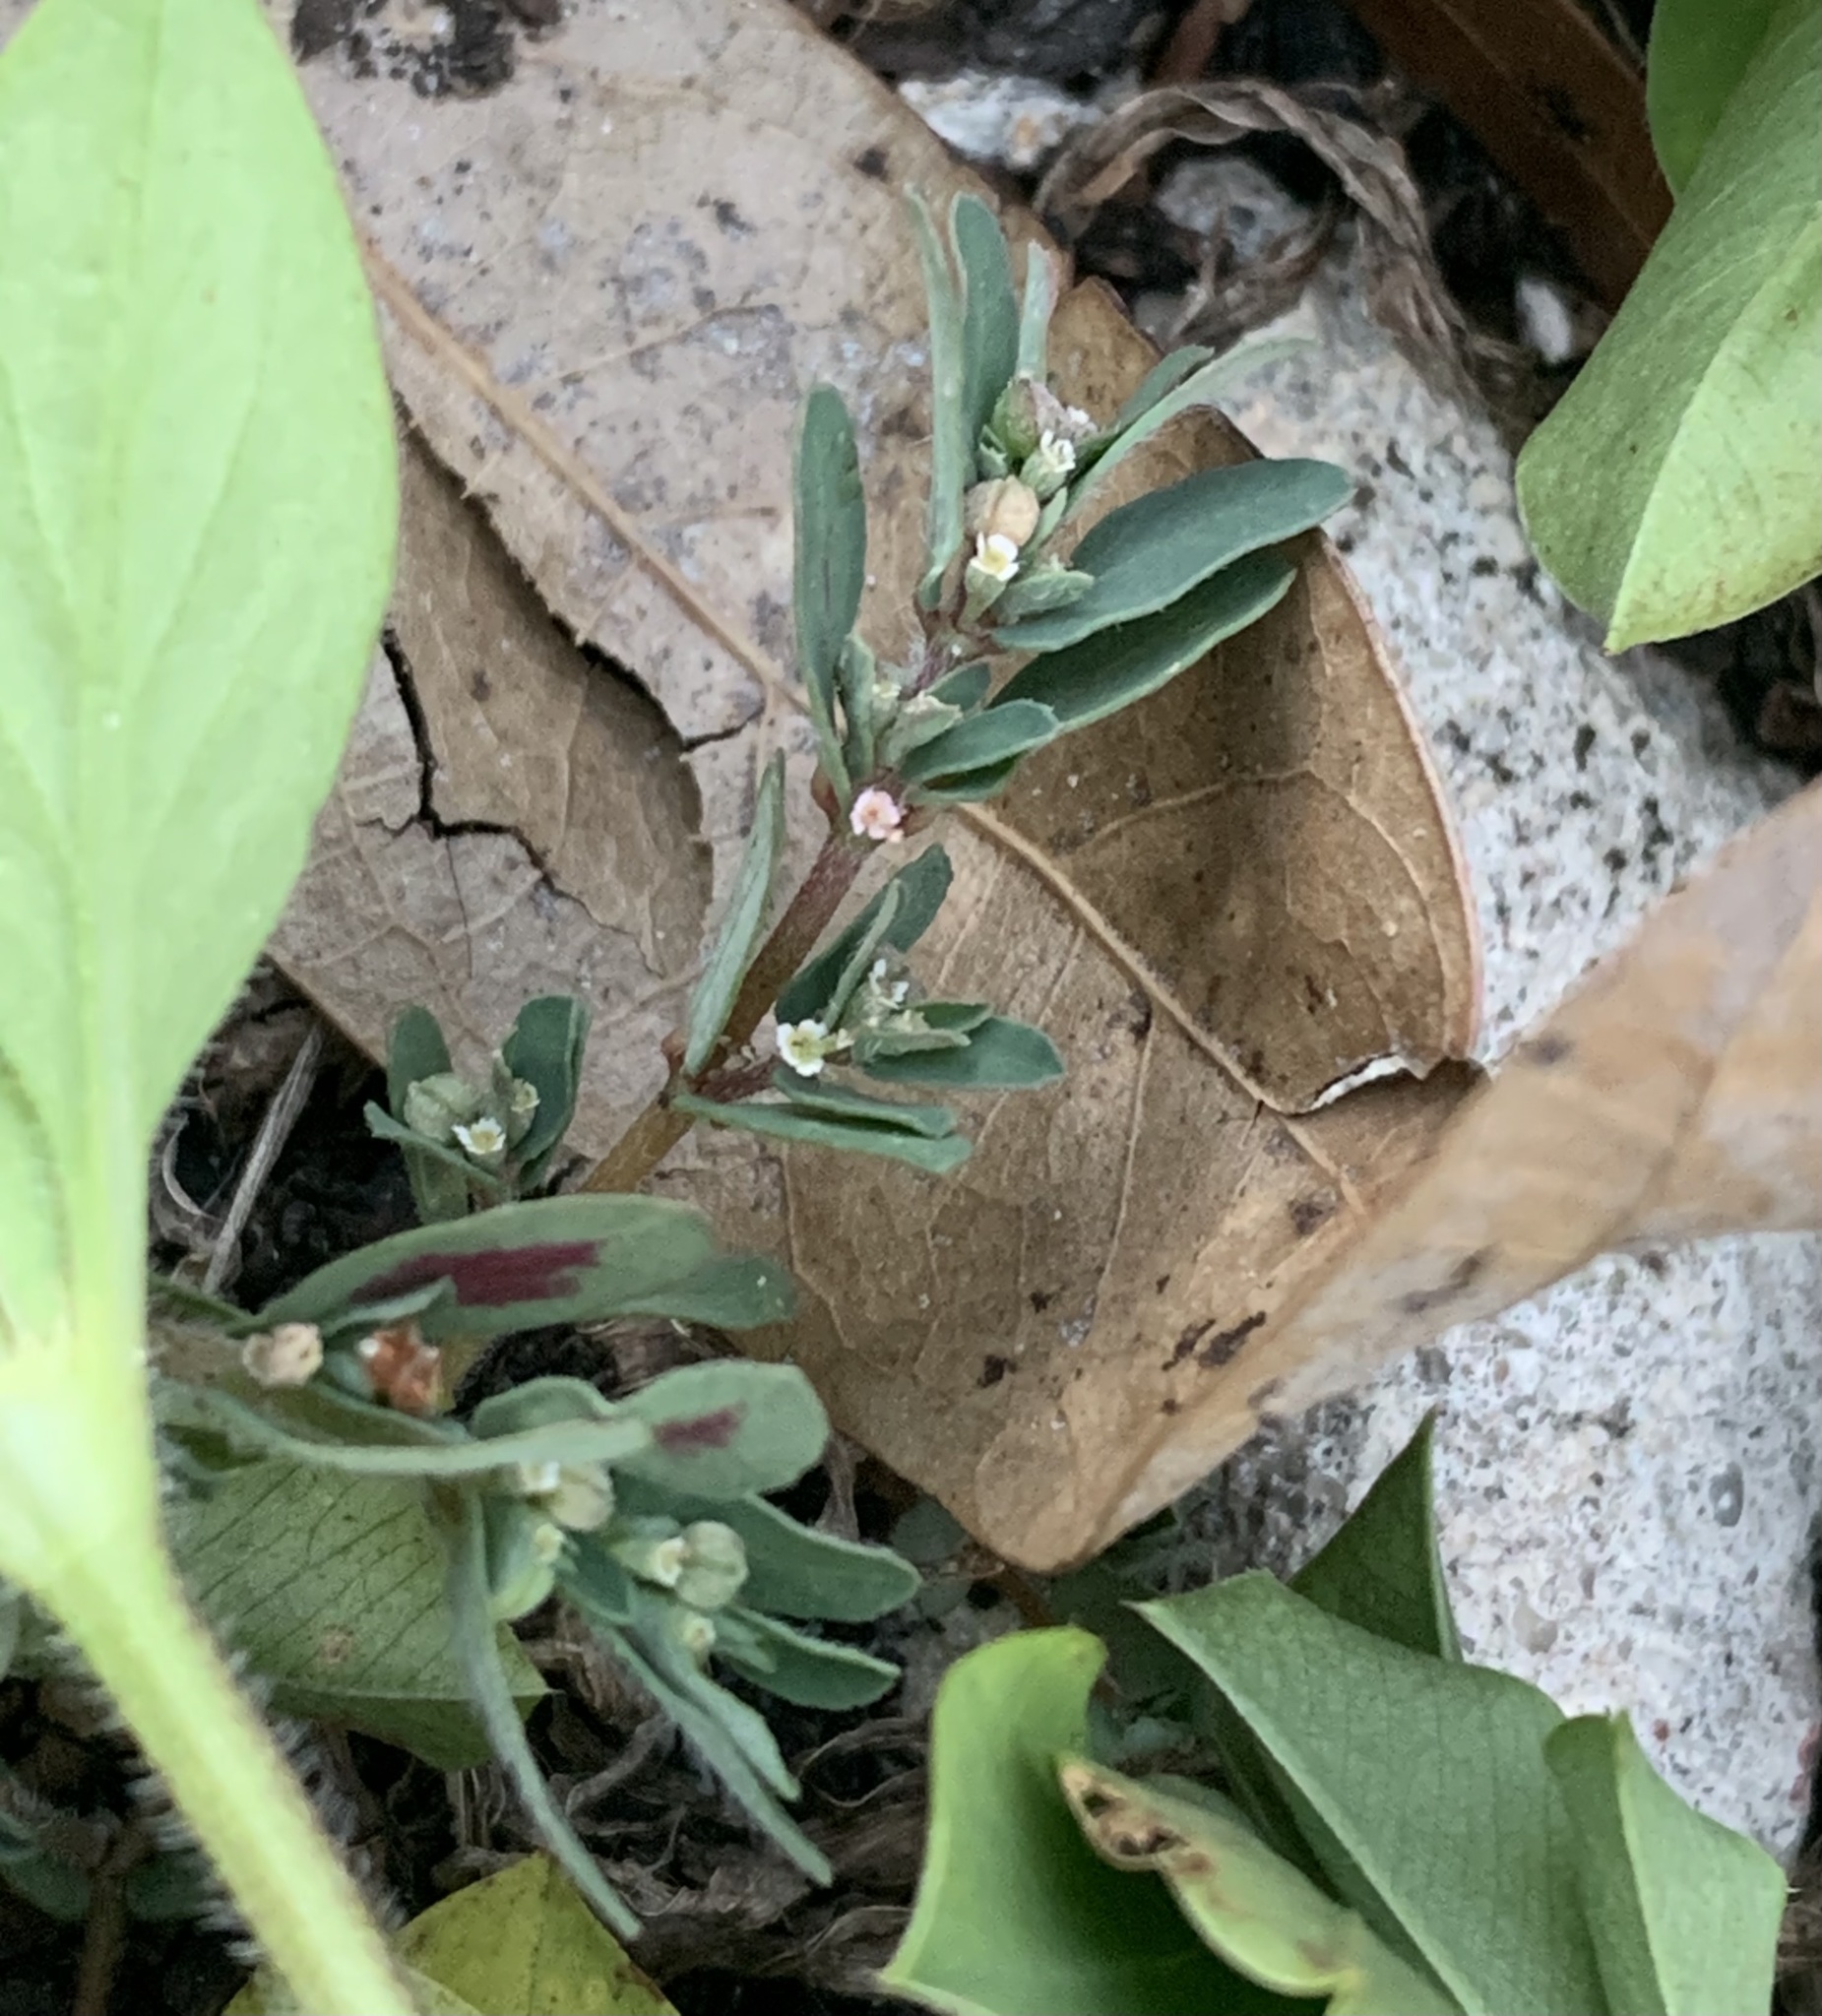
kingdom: Plantae
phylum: Tracheophyta
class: Magnoliopsida
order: Malpighiales
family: Euphorbiaceae
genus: Euphorbia
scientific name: Euphorbia maculata
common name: Spotted spurge
